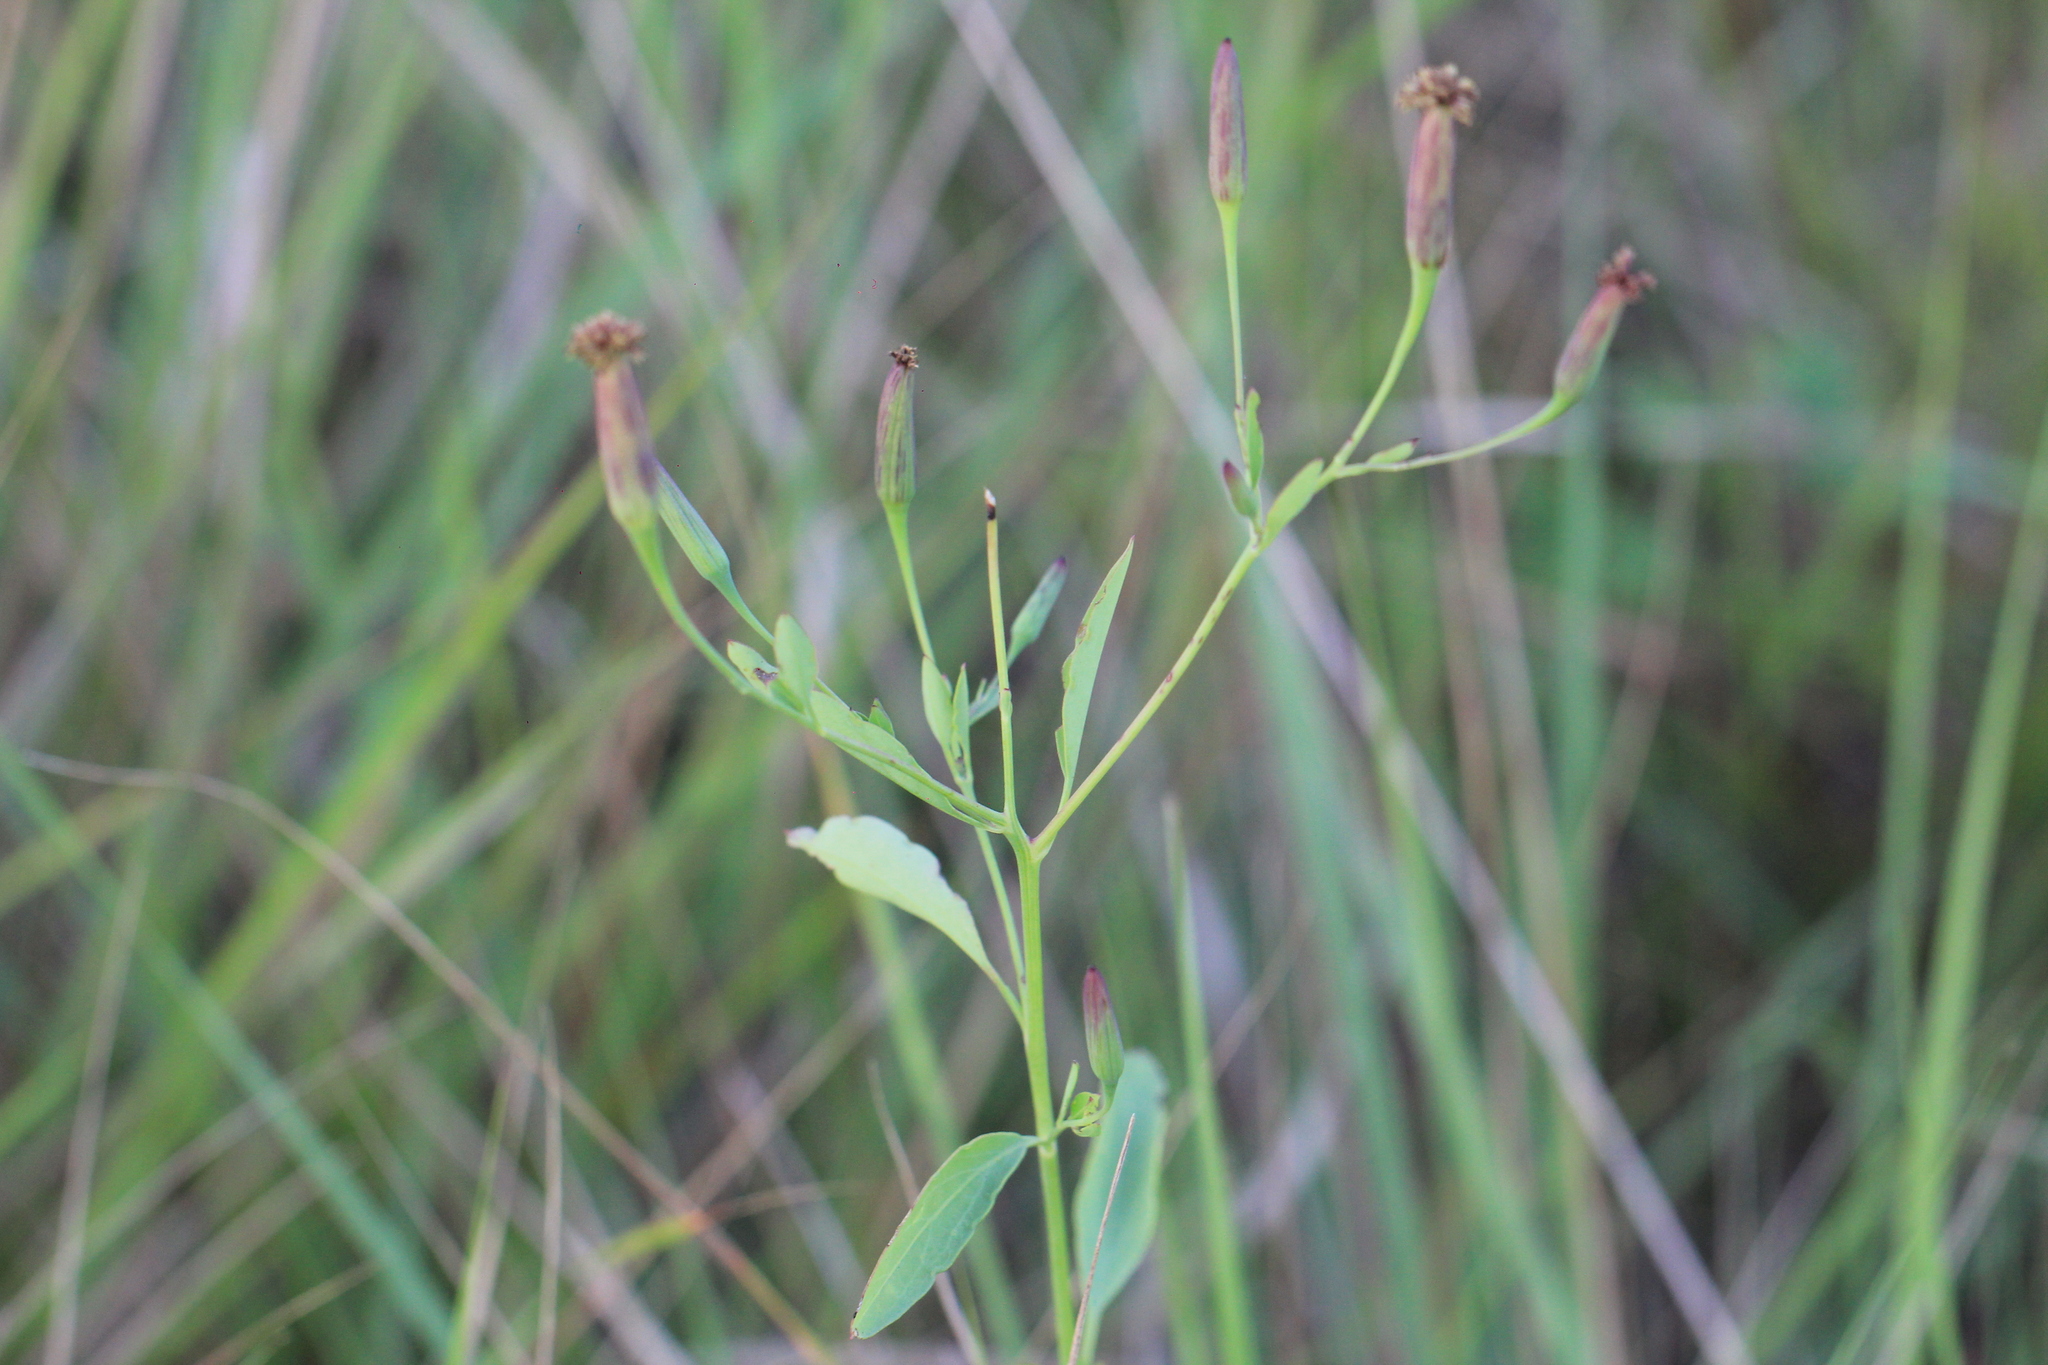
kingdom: Plantae
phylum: Tracheophyta
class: Magnoliopsida
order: Asterales
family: Asteraceae
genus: Porophyllum
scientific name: Porophyllum ruderale
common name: Yerba porosa
